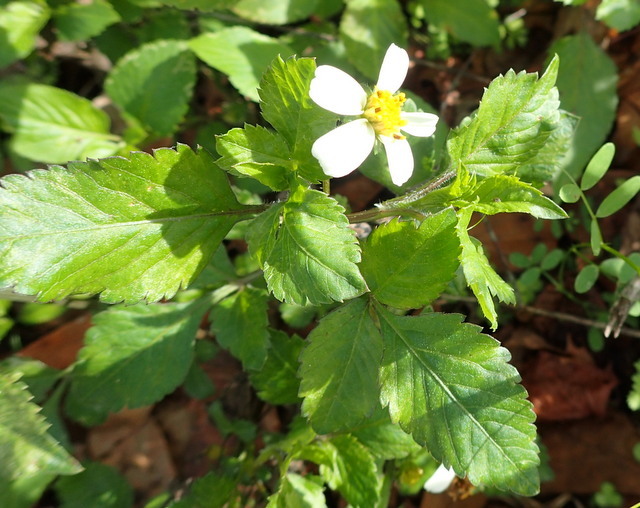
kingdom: Plantae
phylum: Tracheophyta
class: Magnoliopsida
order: Asterales
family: Asteraceae
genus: Bidens
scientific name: Bidens alba
